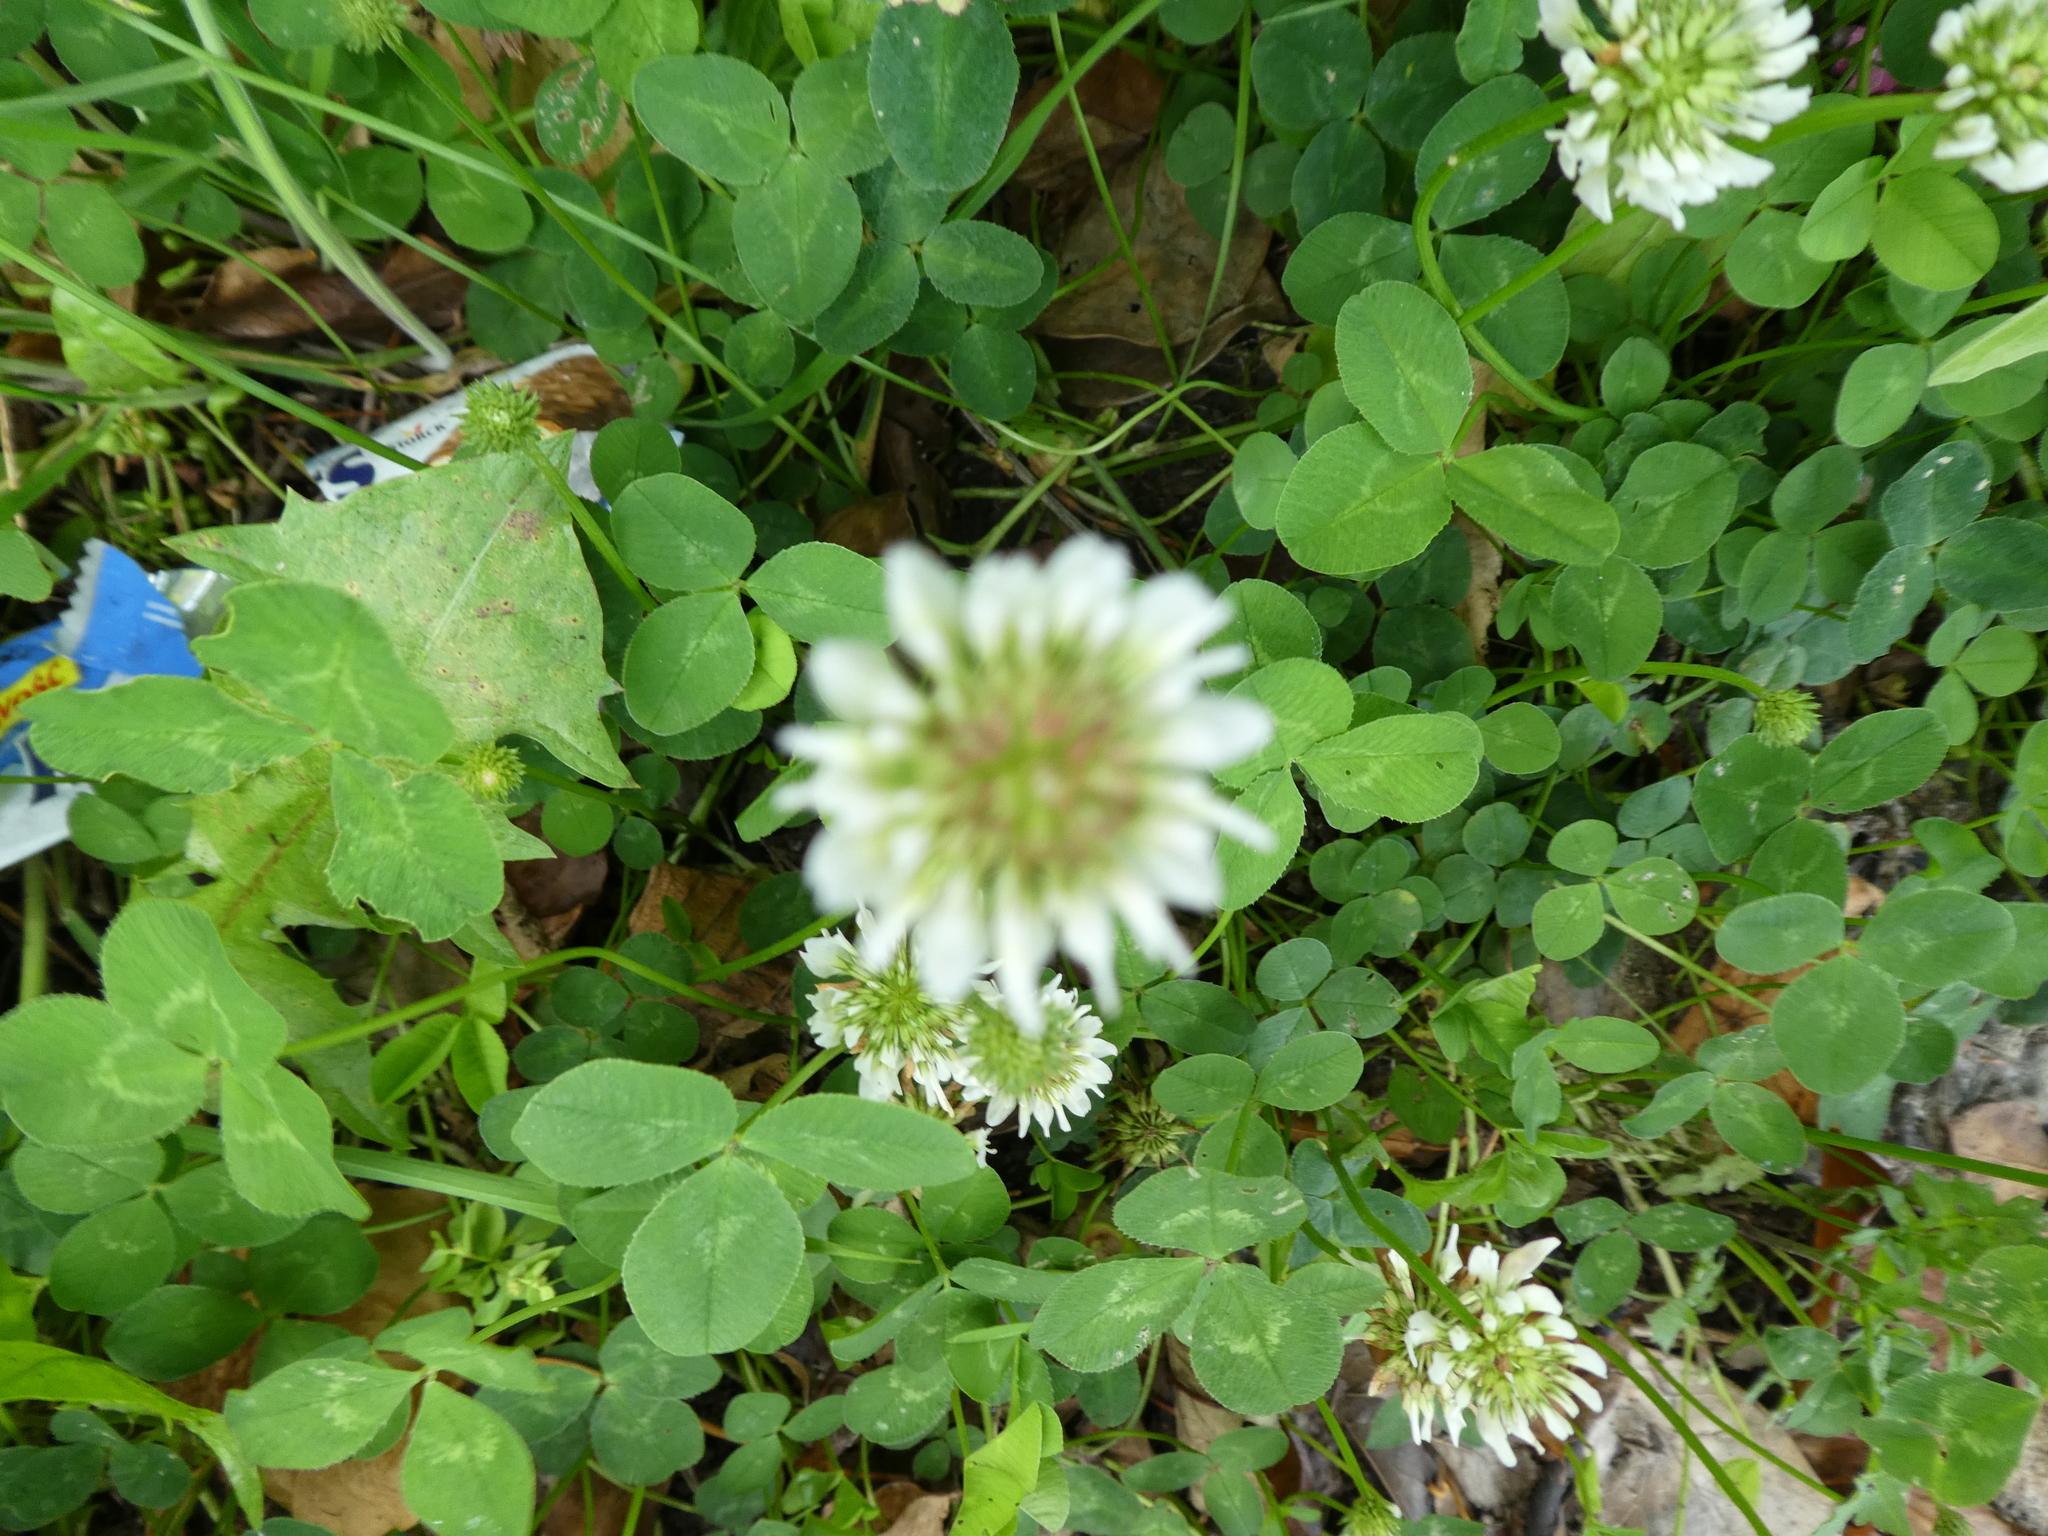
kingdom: Plantae
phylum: Tracheophyta
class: Magnoliopsida
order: Fabales
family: Fabaceae
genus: Trifolium
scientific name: Trifolium repens
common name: White clover
